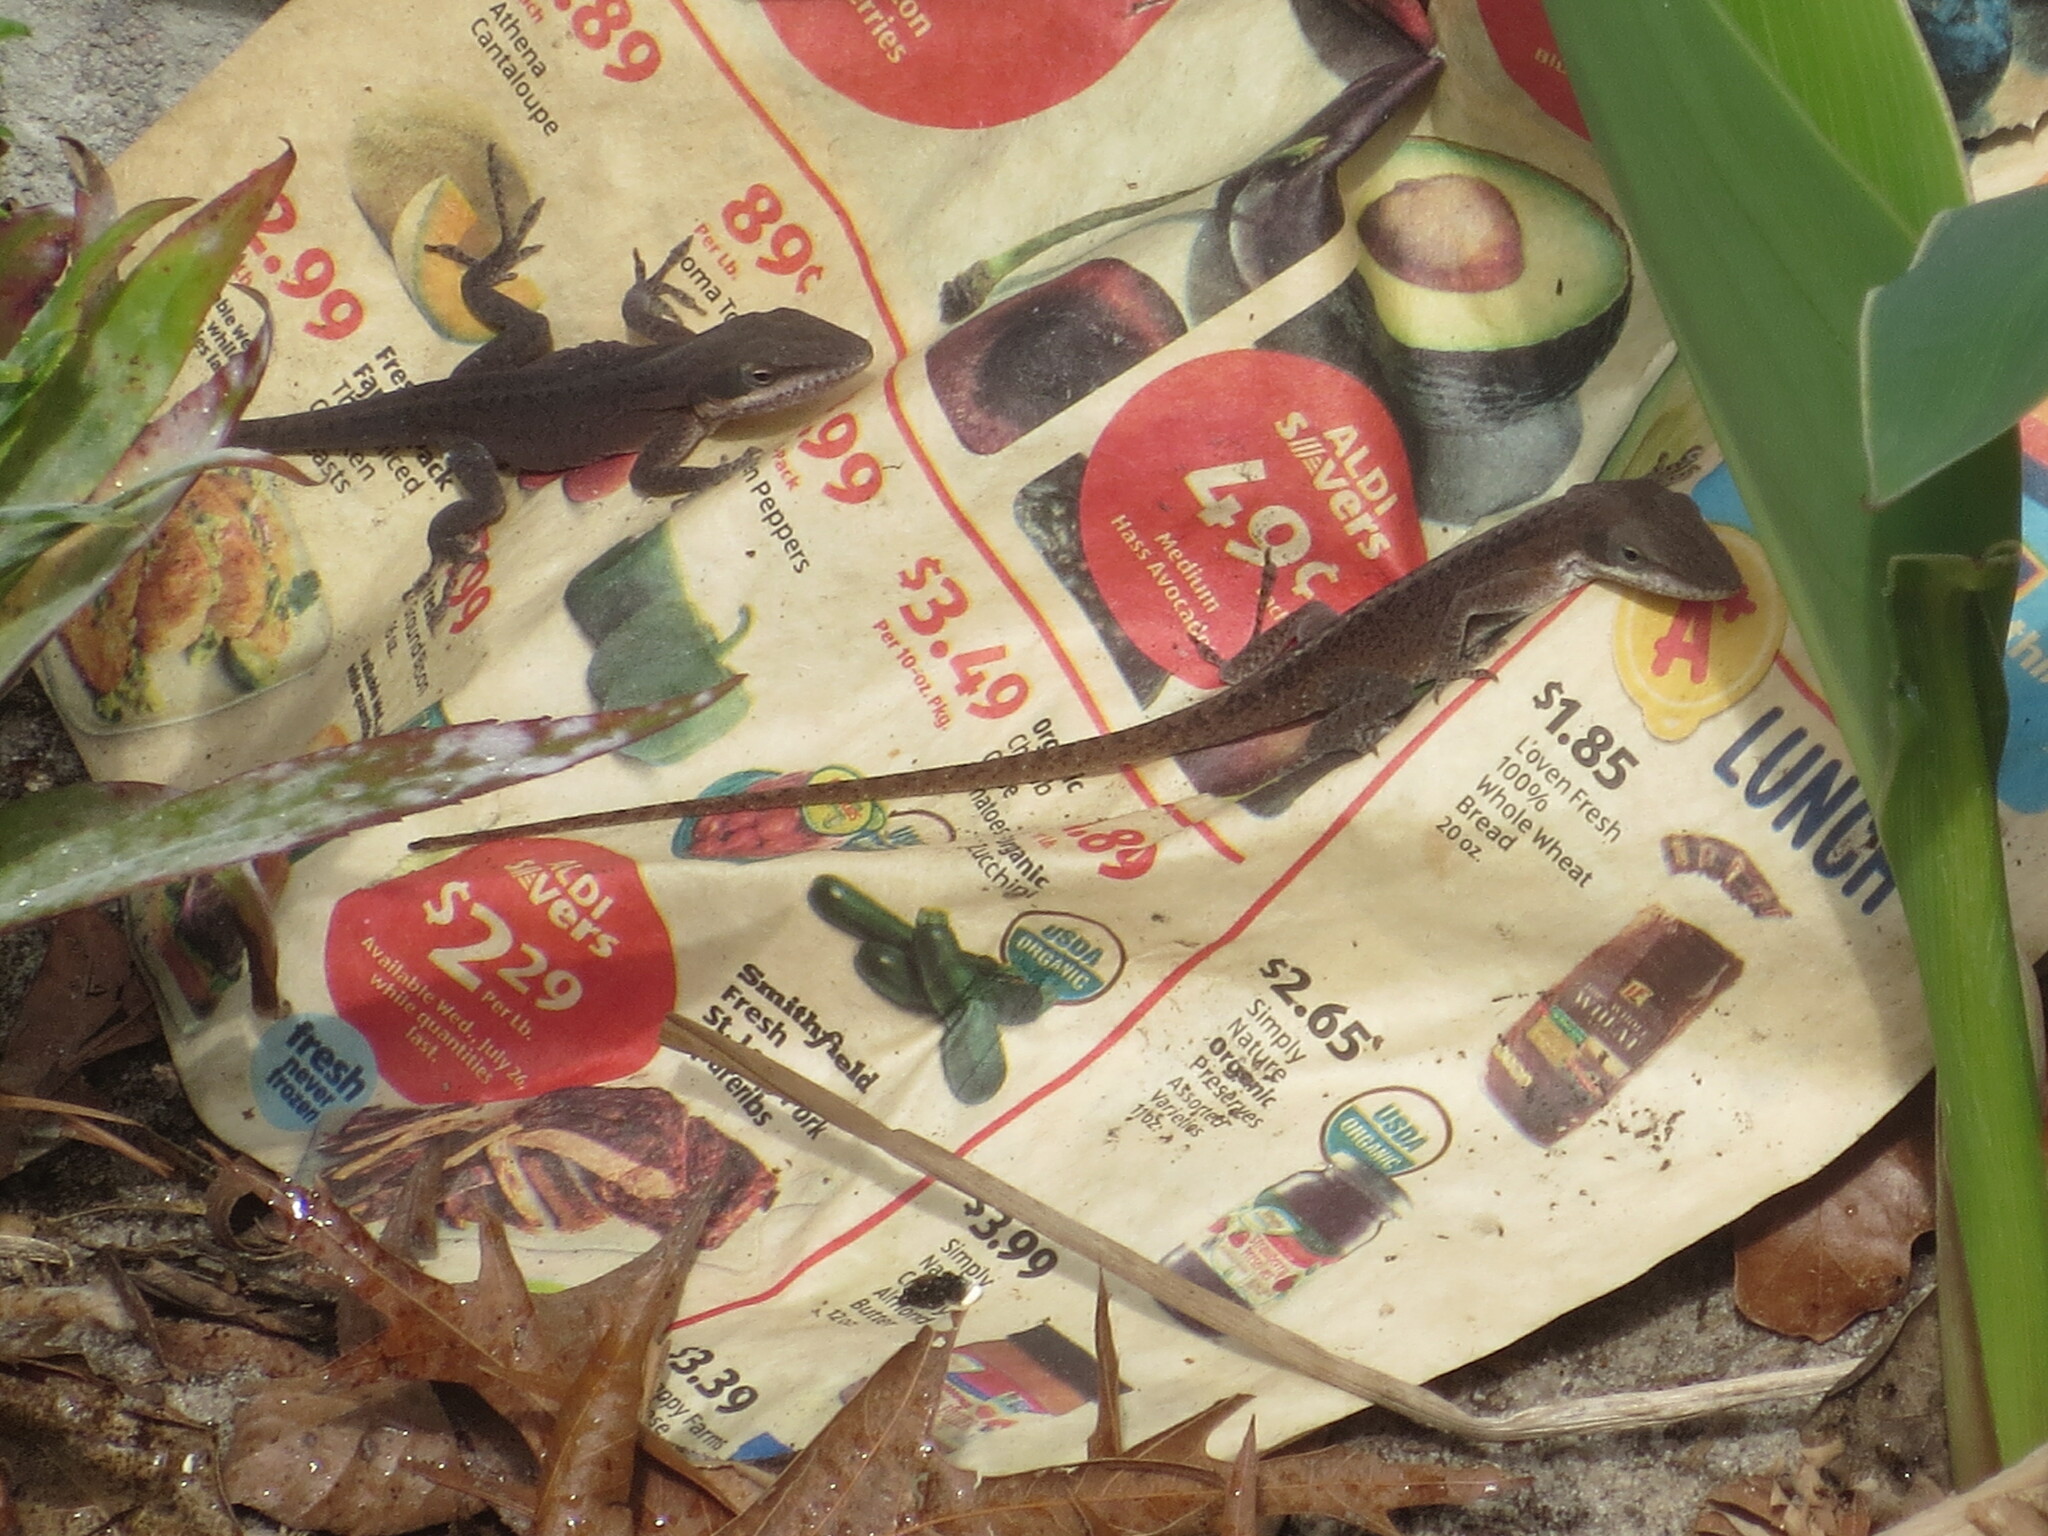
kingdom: Animalia
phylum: Chordata
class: Squamata
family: Dactyloidae
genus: Anolis
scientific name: Anolis carolinensis
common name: Green anole
